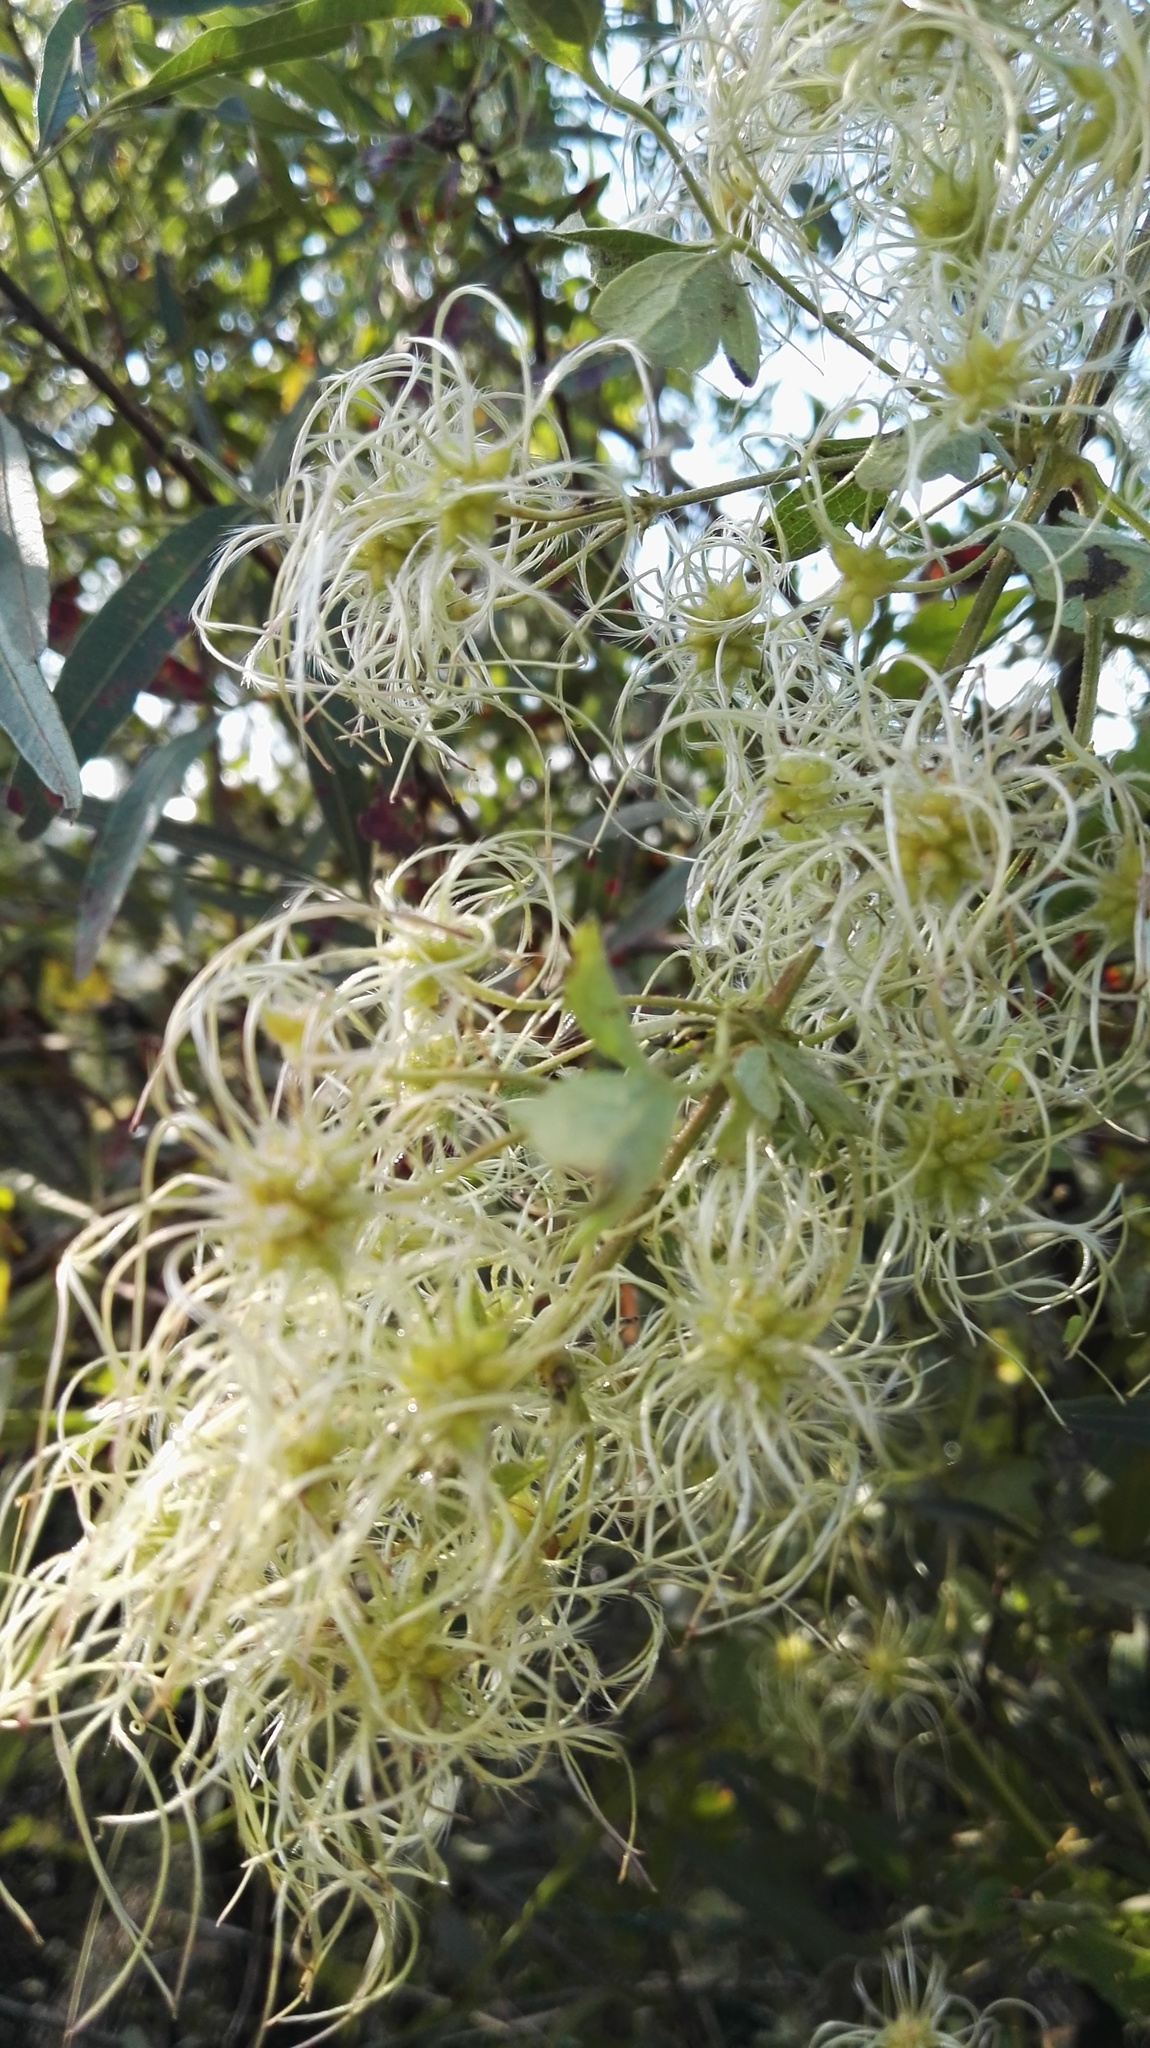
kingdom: Plantae
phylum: Tracheophyta
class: Magnoliopsida
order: Ranunculales
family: Ranunculaceae
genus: Clematis
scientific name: Clematis brachiata
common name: Traveler's-joy
